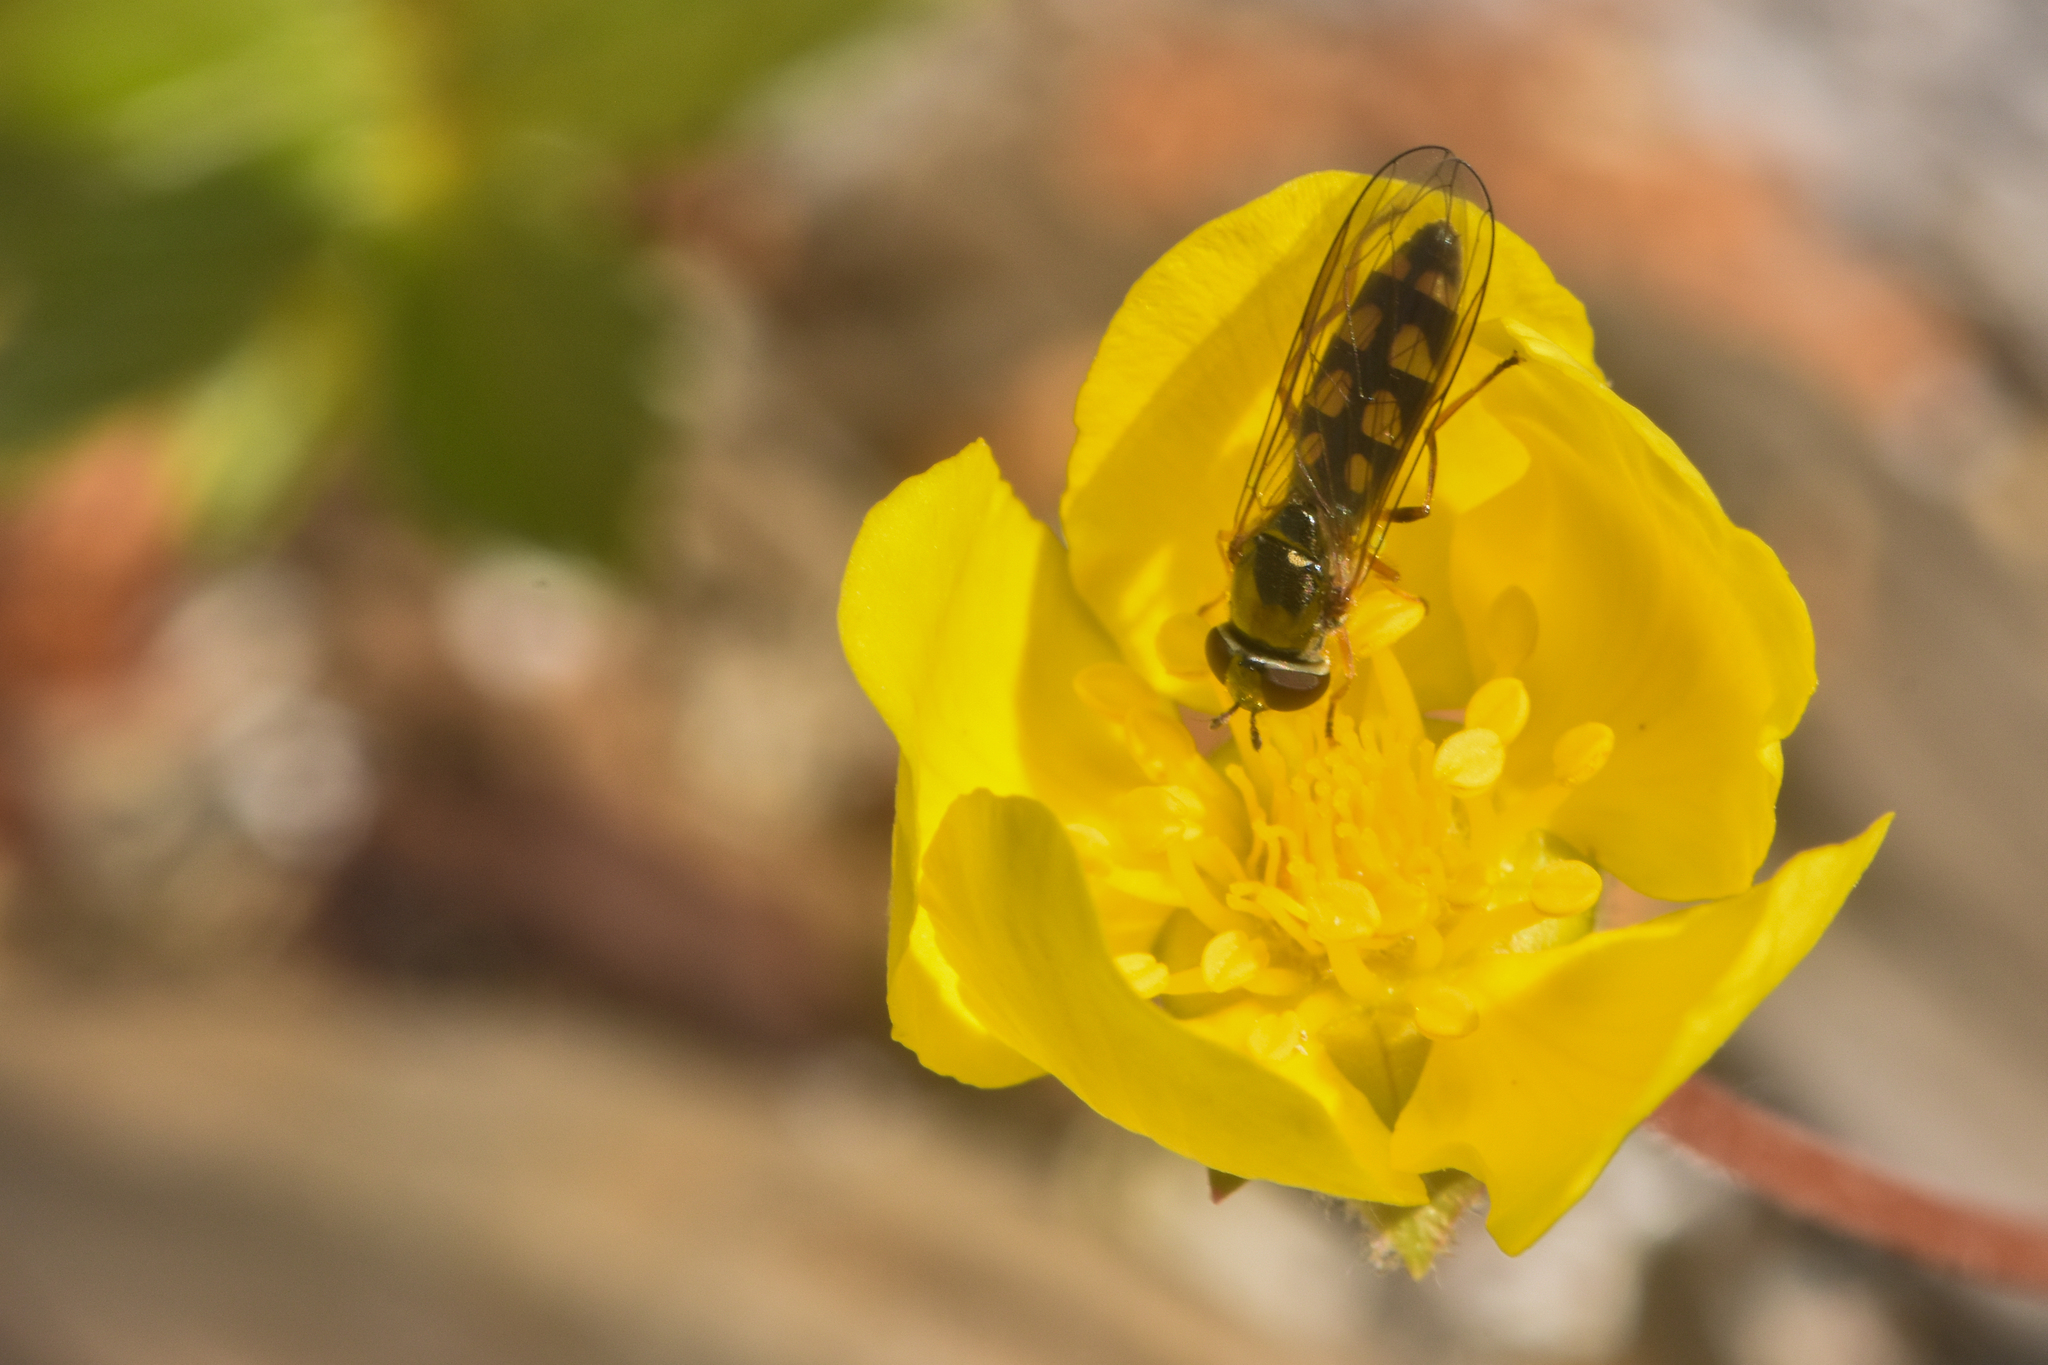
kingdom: Animalia
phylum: Arthropoda
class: Insecta
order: Diptera
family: Syrphidae
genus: Melanostoma
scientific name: Melanostoma mellina
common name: Hover fly
